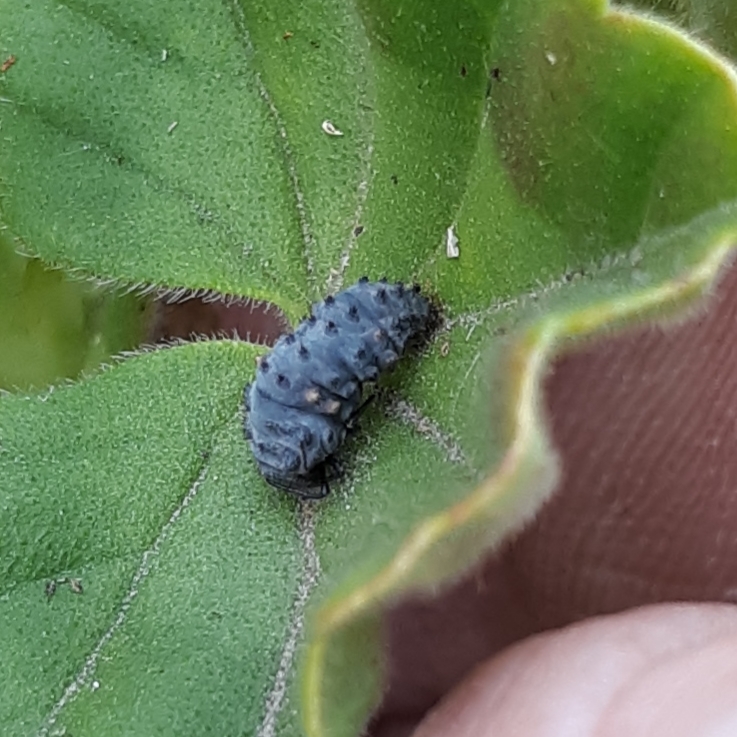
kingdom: Animalia
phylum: Arthropoda
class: Insecta
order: Coleoptera
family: Coccinellidae
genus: Coccinella
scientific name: Coccinella septempunctata
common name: Sevenspotted lady beetle
